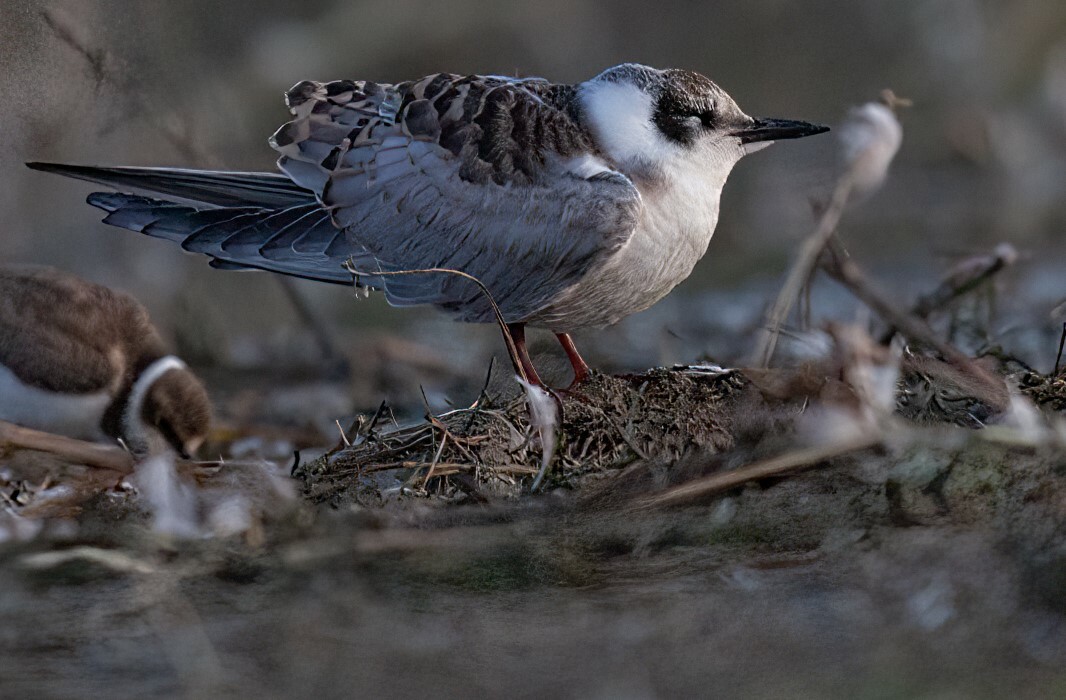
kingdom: Animalia
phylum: Chordata
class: Aves
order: Charadriiformes
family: Laridae
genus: Chlidonias
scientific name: Chlidonias hybrida
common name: Whiskered tern
